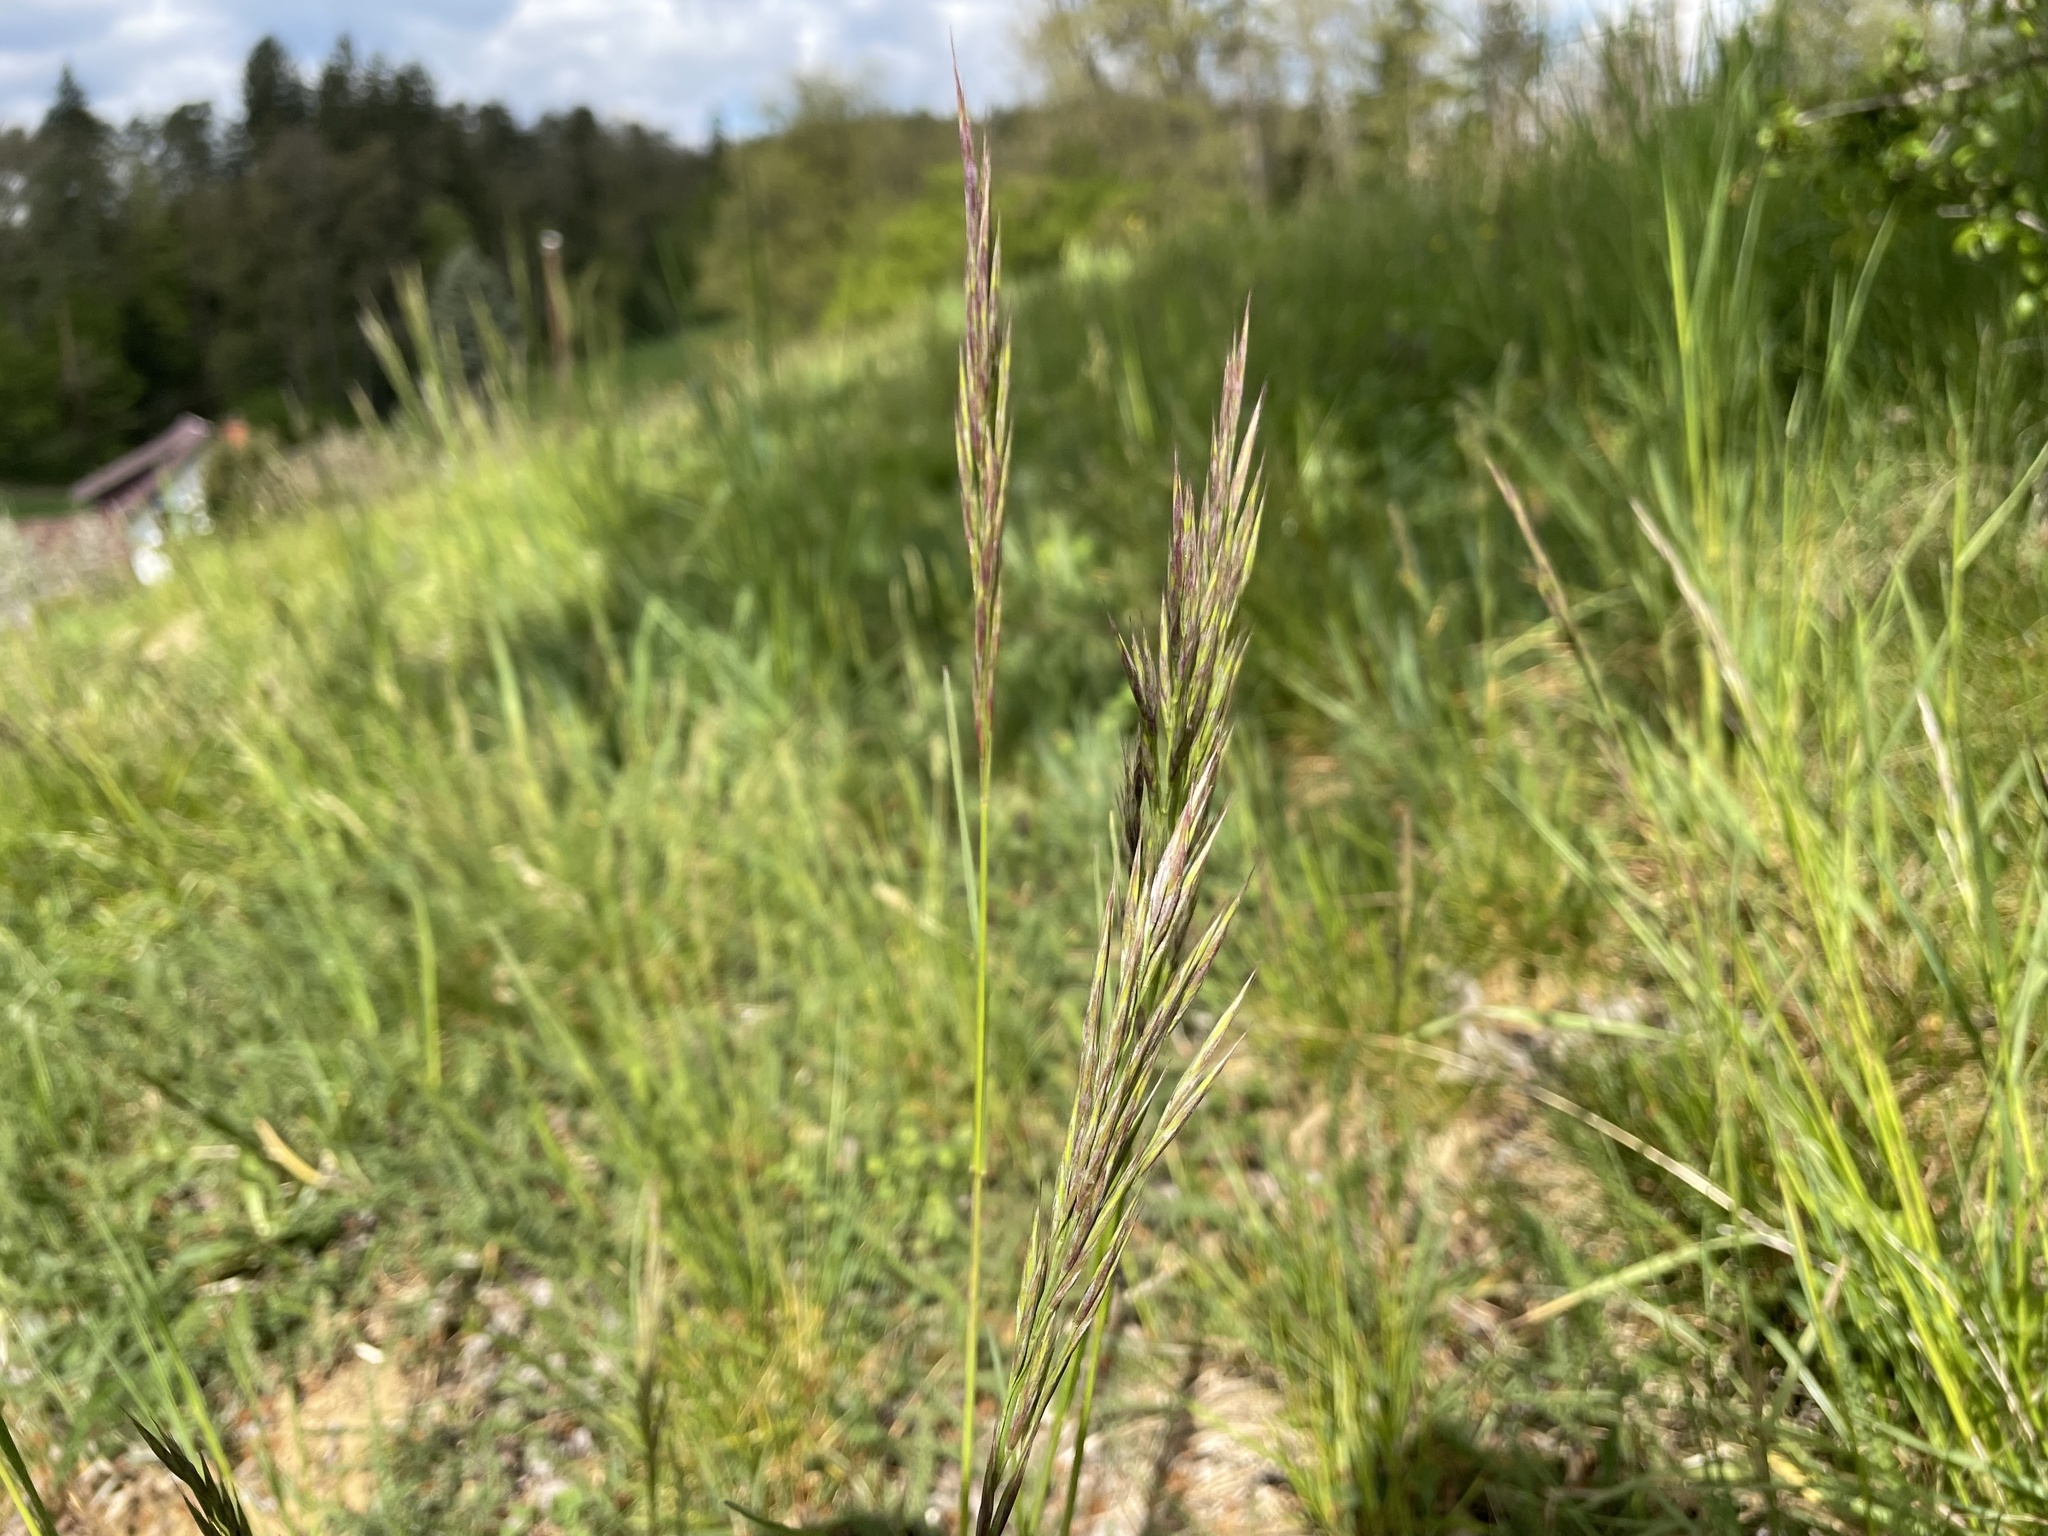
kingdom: Plantae
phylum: Tracheophyta
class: Liliopsida
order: Poales
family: Poaceae
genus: Bromus
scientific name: Bromus erectus
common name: Erect brome
